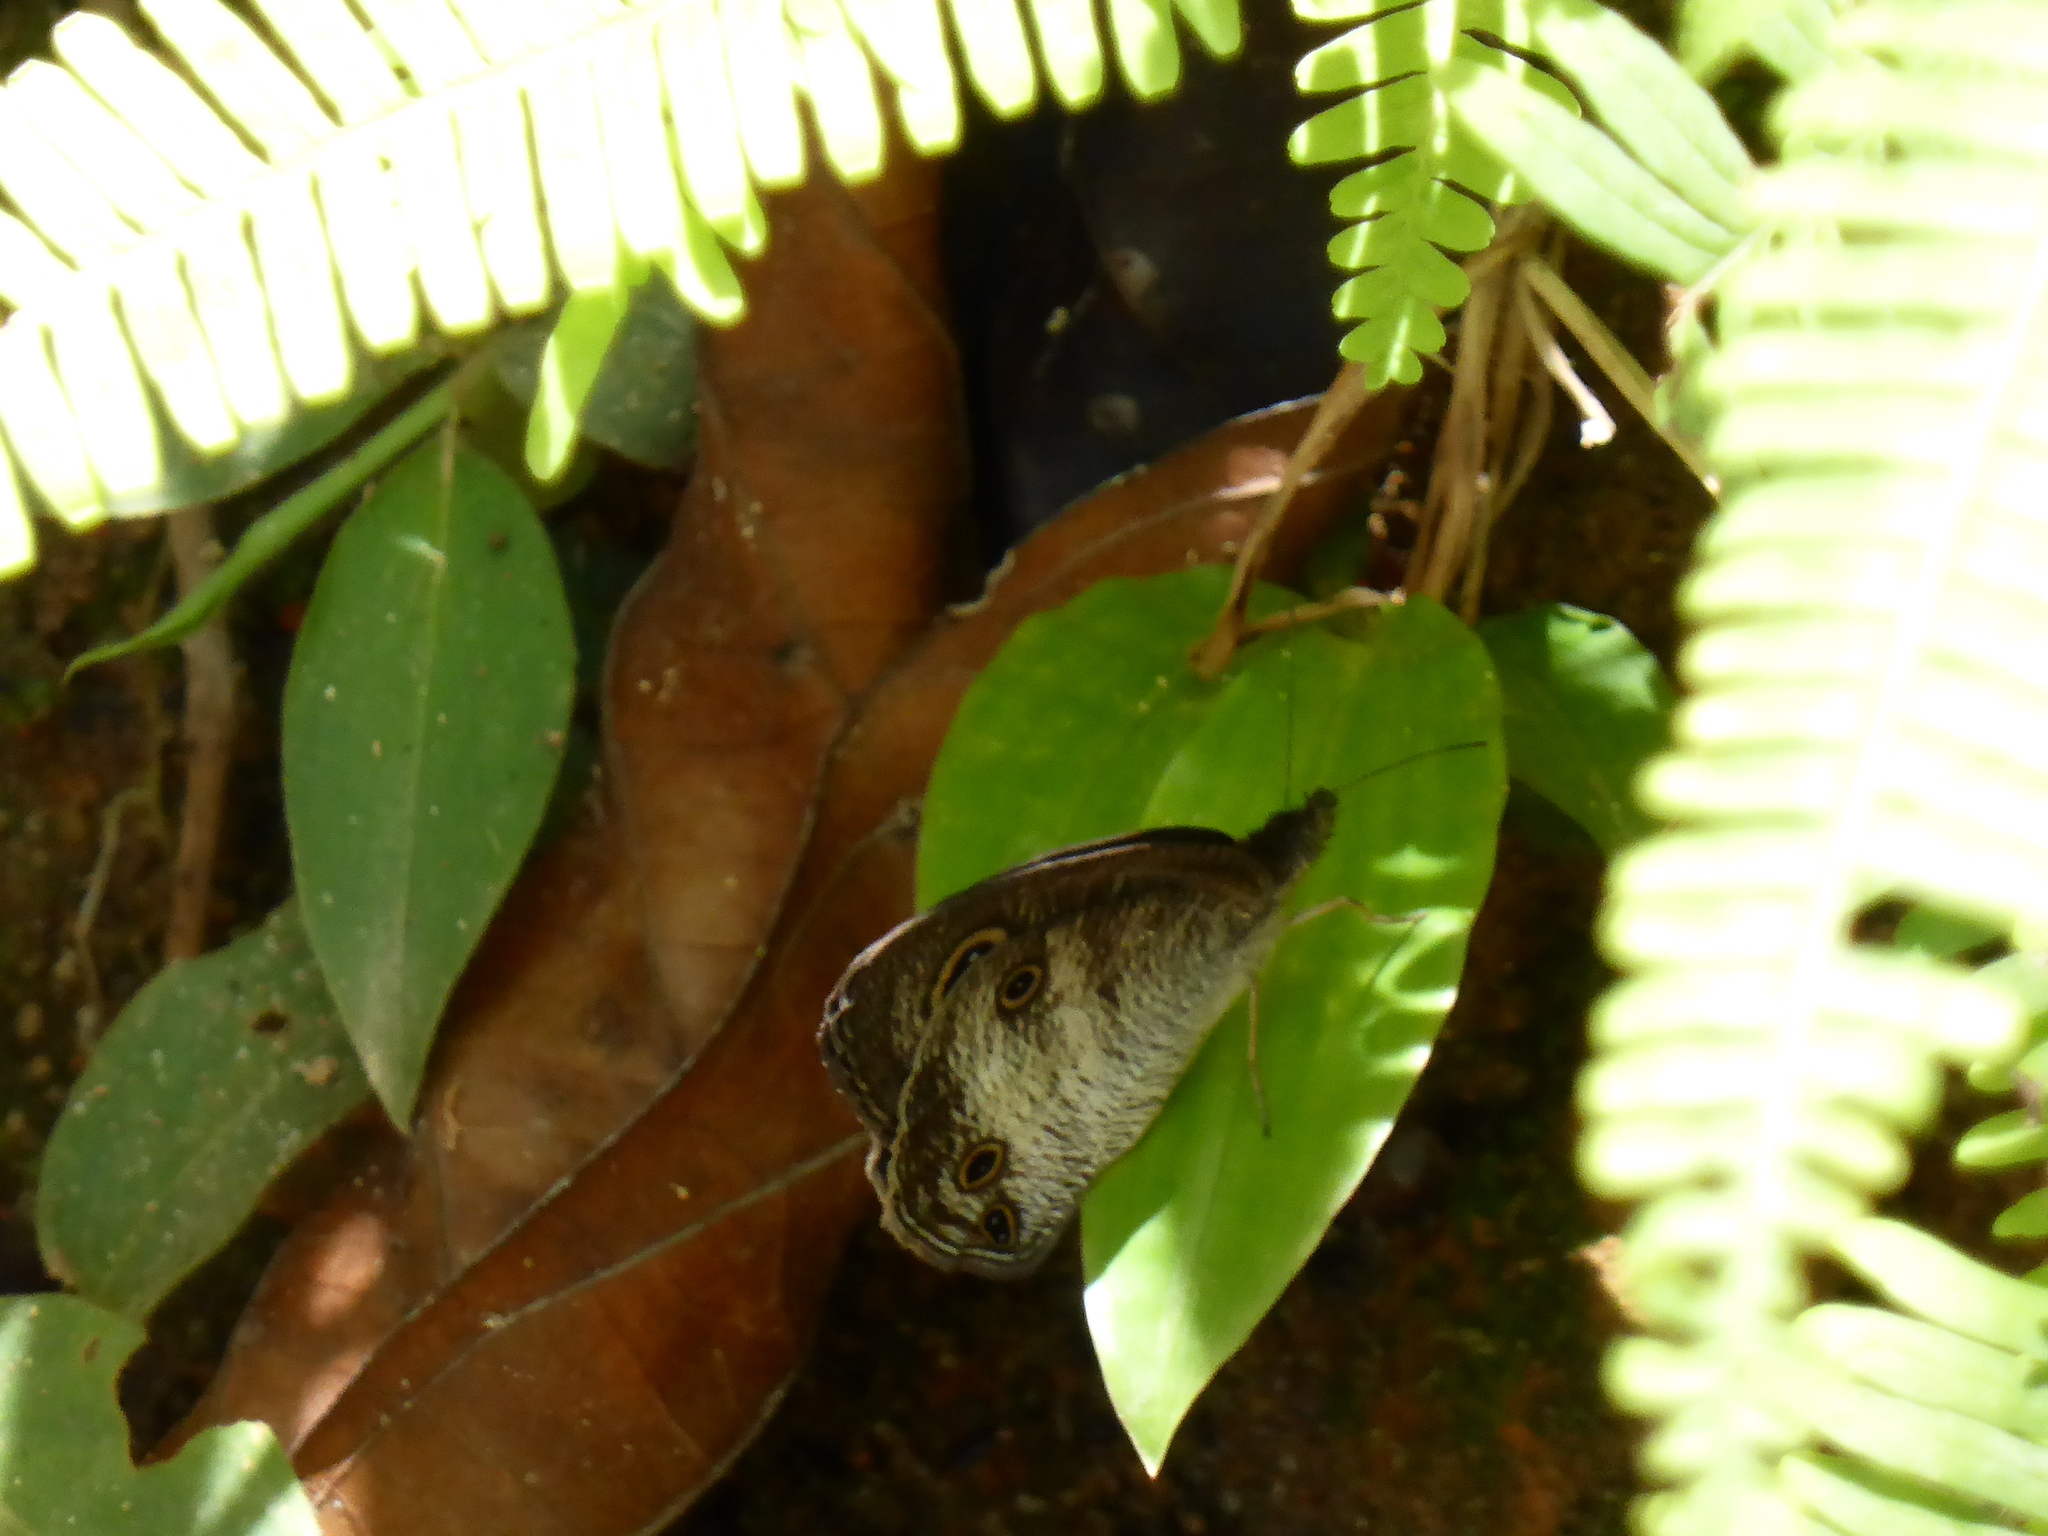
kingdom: Animalia
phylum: Arthropoda
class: Insecta
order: Lepidoptera
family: Nymphalidae
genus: Ypthima
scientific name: Ypthima pandocus
